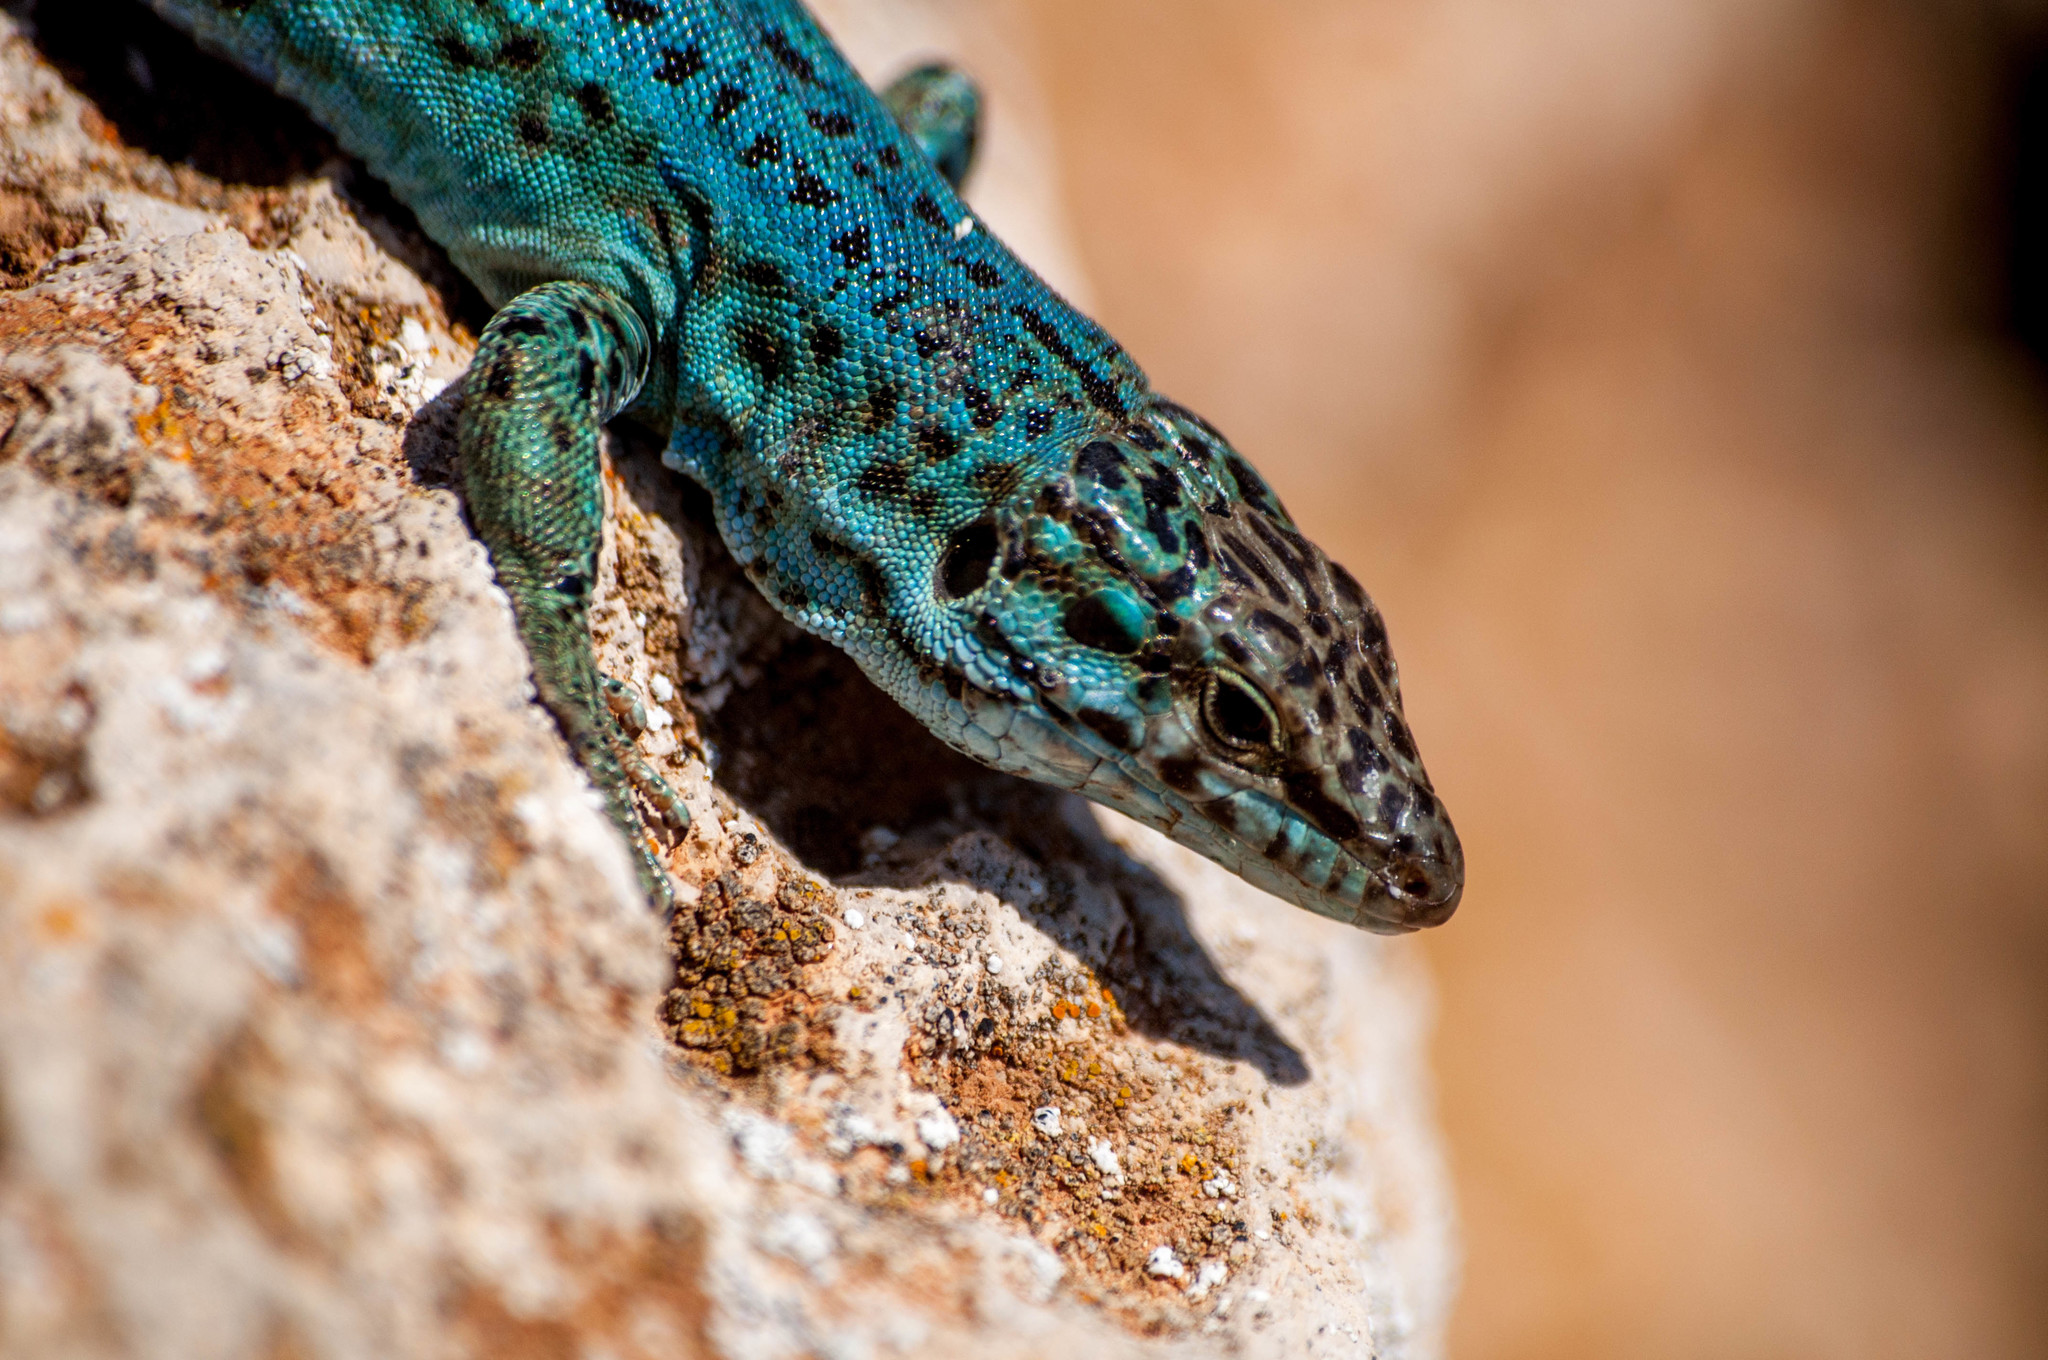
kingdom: Animalia
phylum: Chordata
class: Squamata
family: Lacertidae
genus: Podarcis
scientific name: Podarcis pityusensis
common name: Ibiza wall lizard
